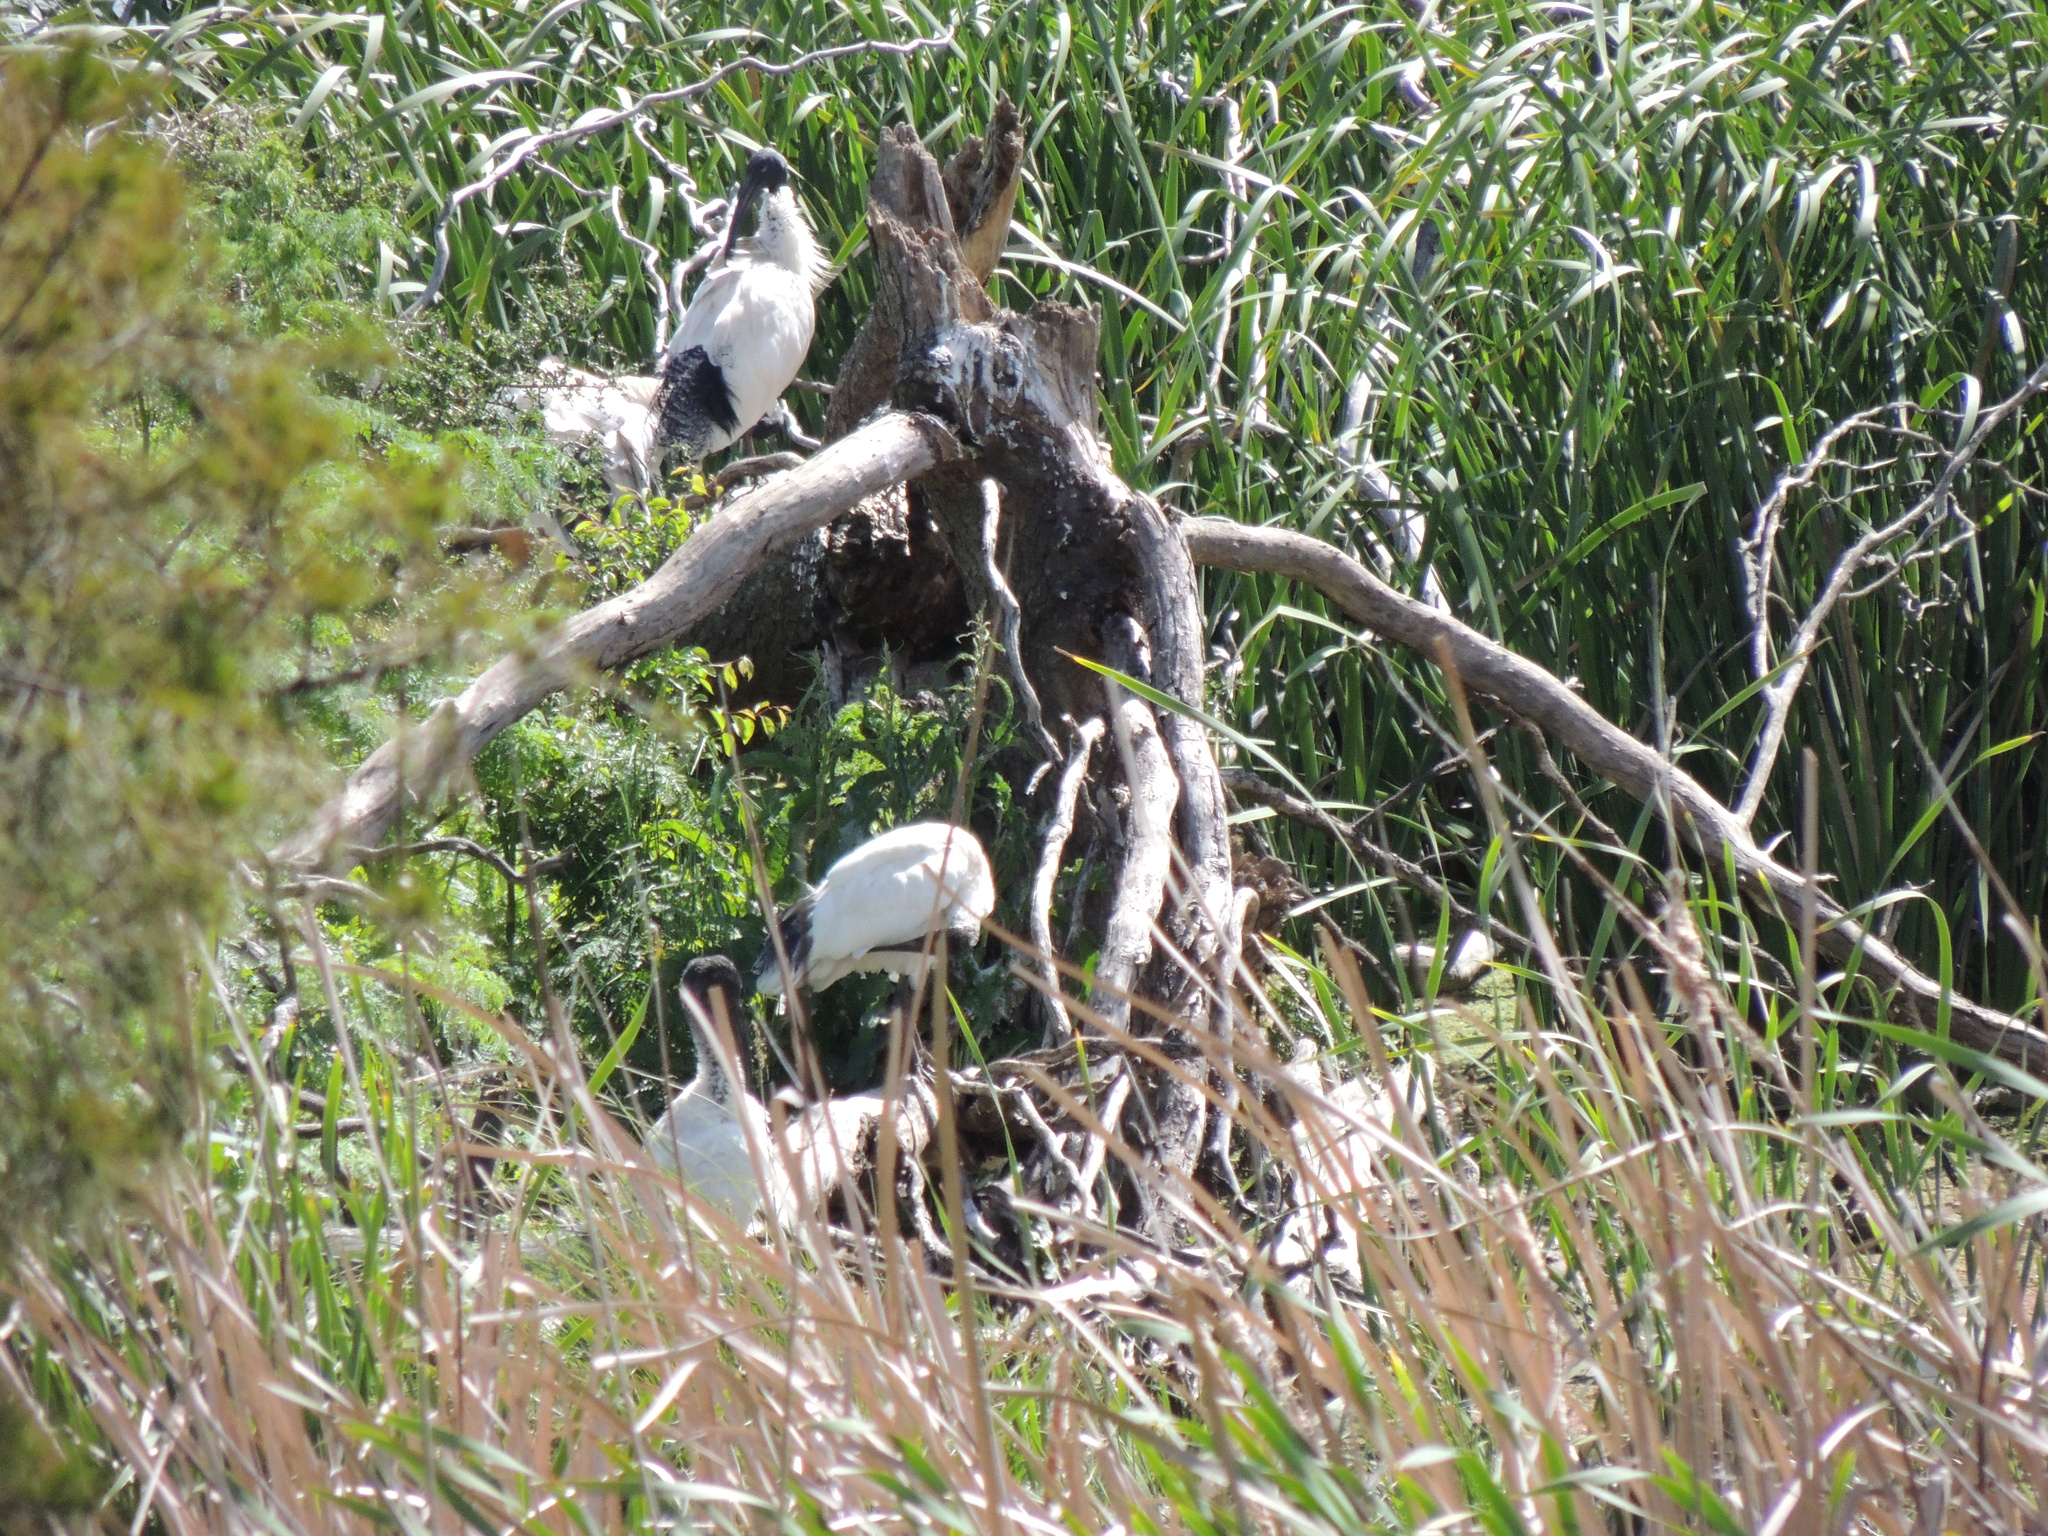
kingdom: Animalia
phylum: Chordata
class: Aves
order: Pelecaniformes
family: Threskiornithidae
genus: Threskiornis
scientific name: Threskiornis molucca
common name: Australian white ibis
